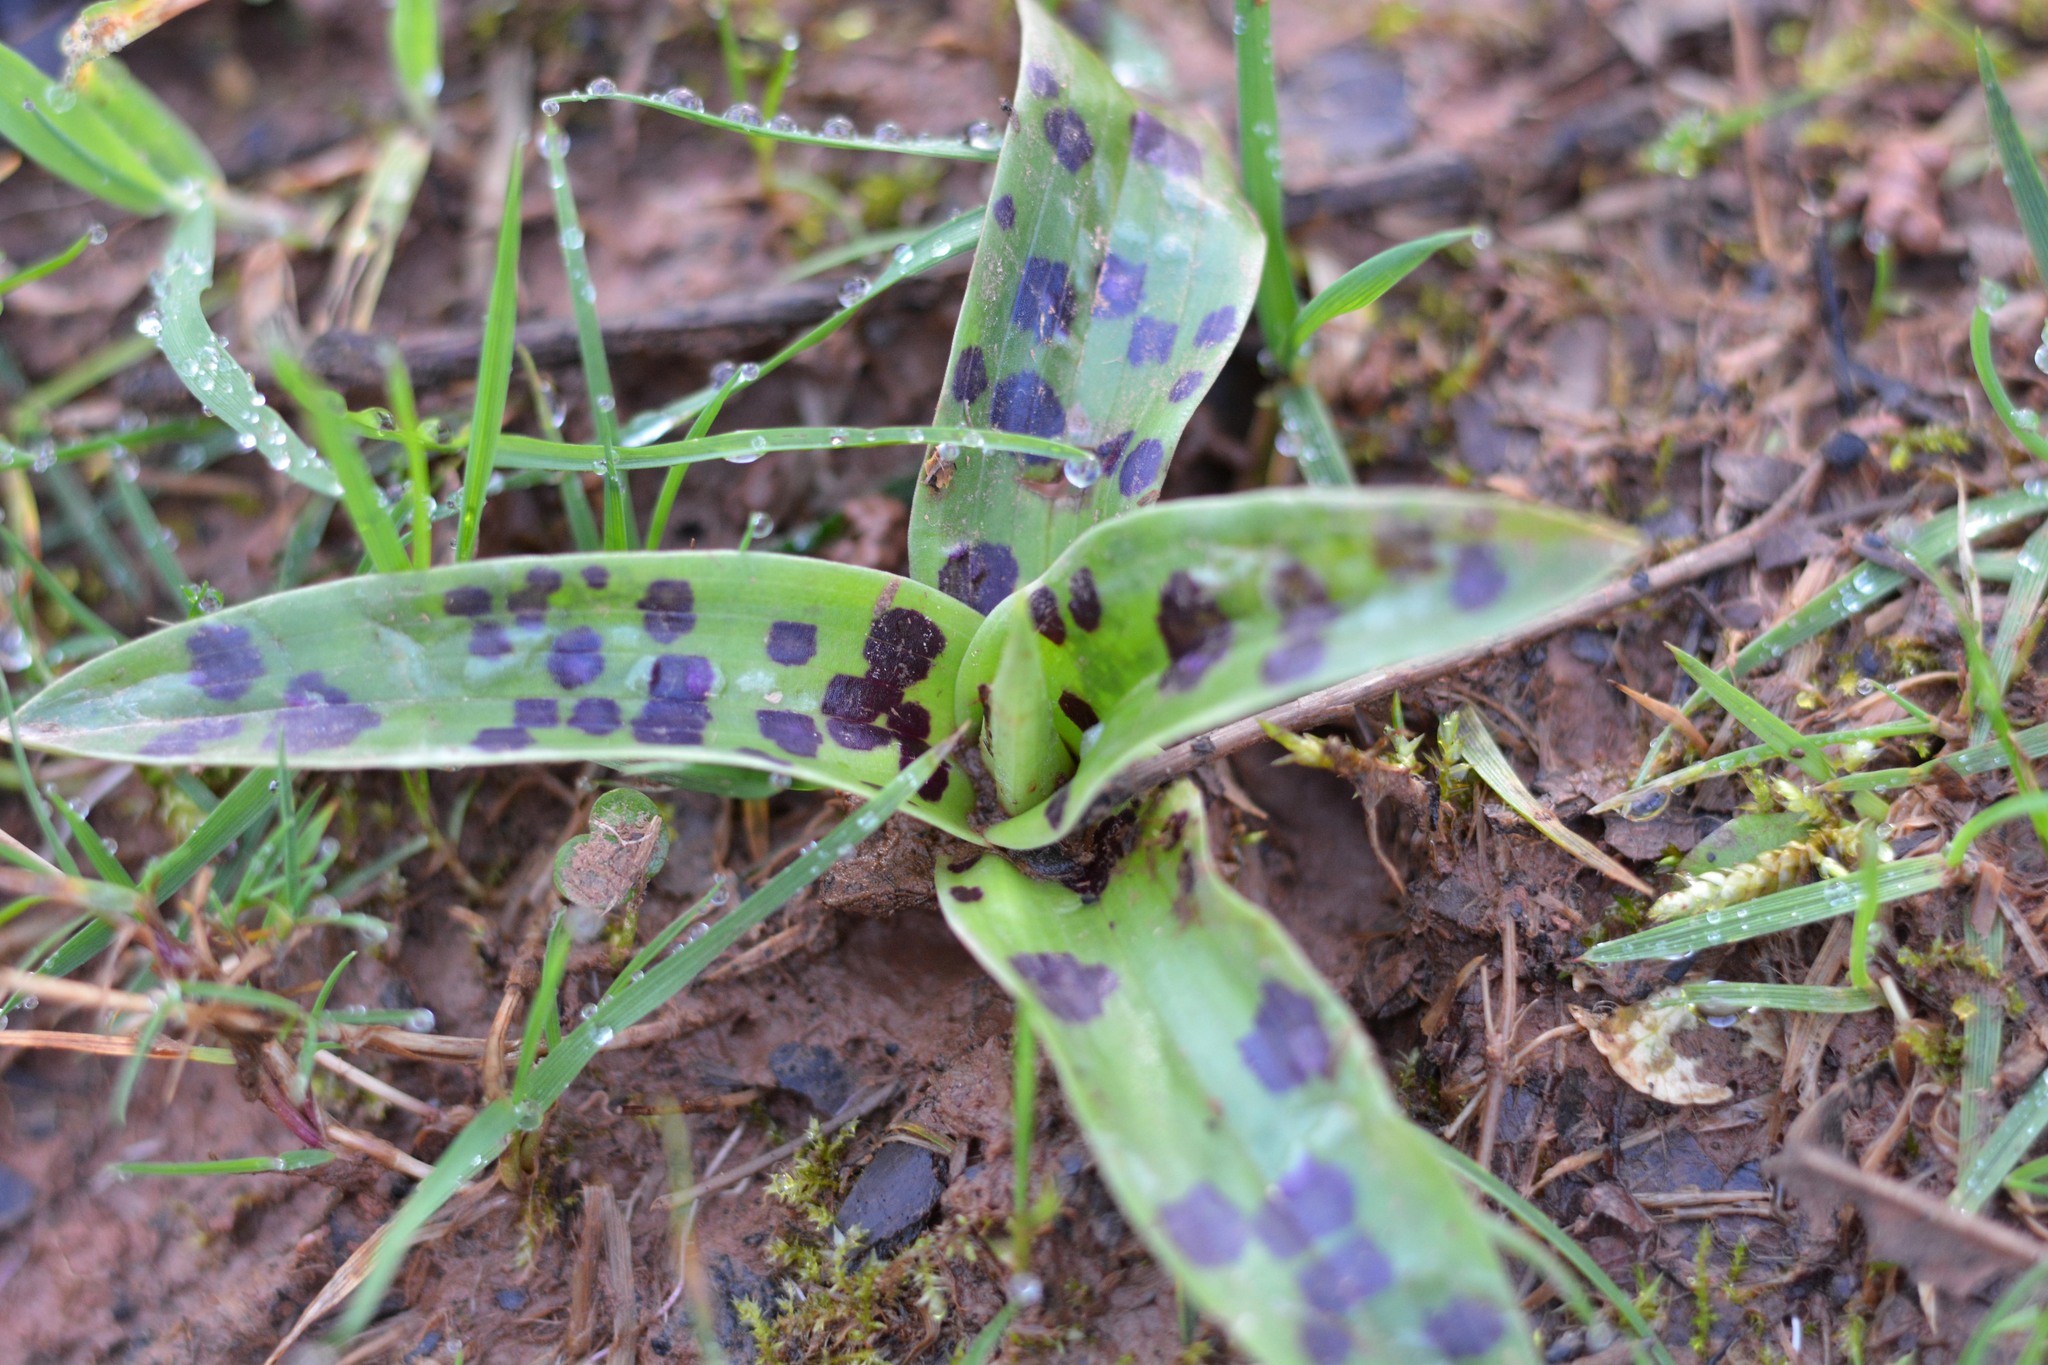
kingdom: Plantae
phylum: Tracheophyta
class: Liliopsida
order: Asparagales
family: Orchidaceae
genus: Orchis
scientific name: Orchis mascula
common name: Early-purple orchid
